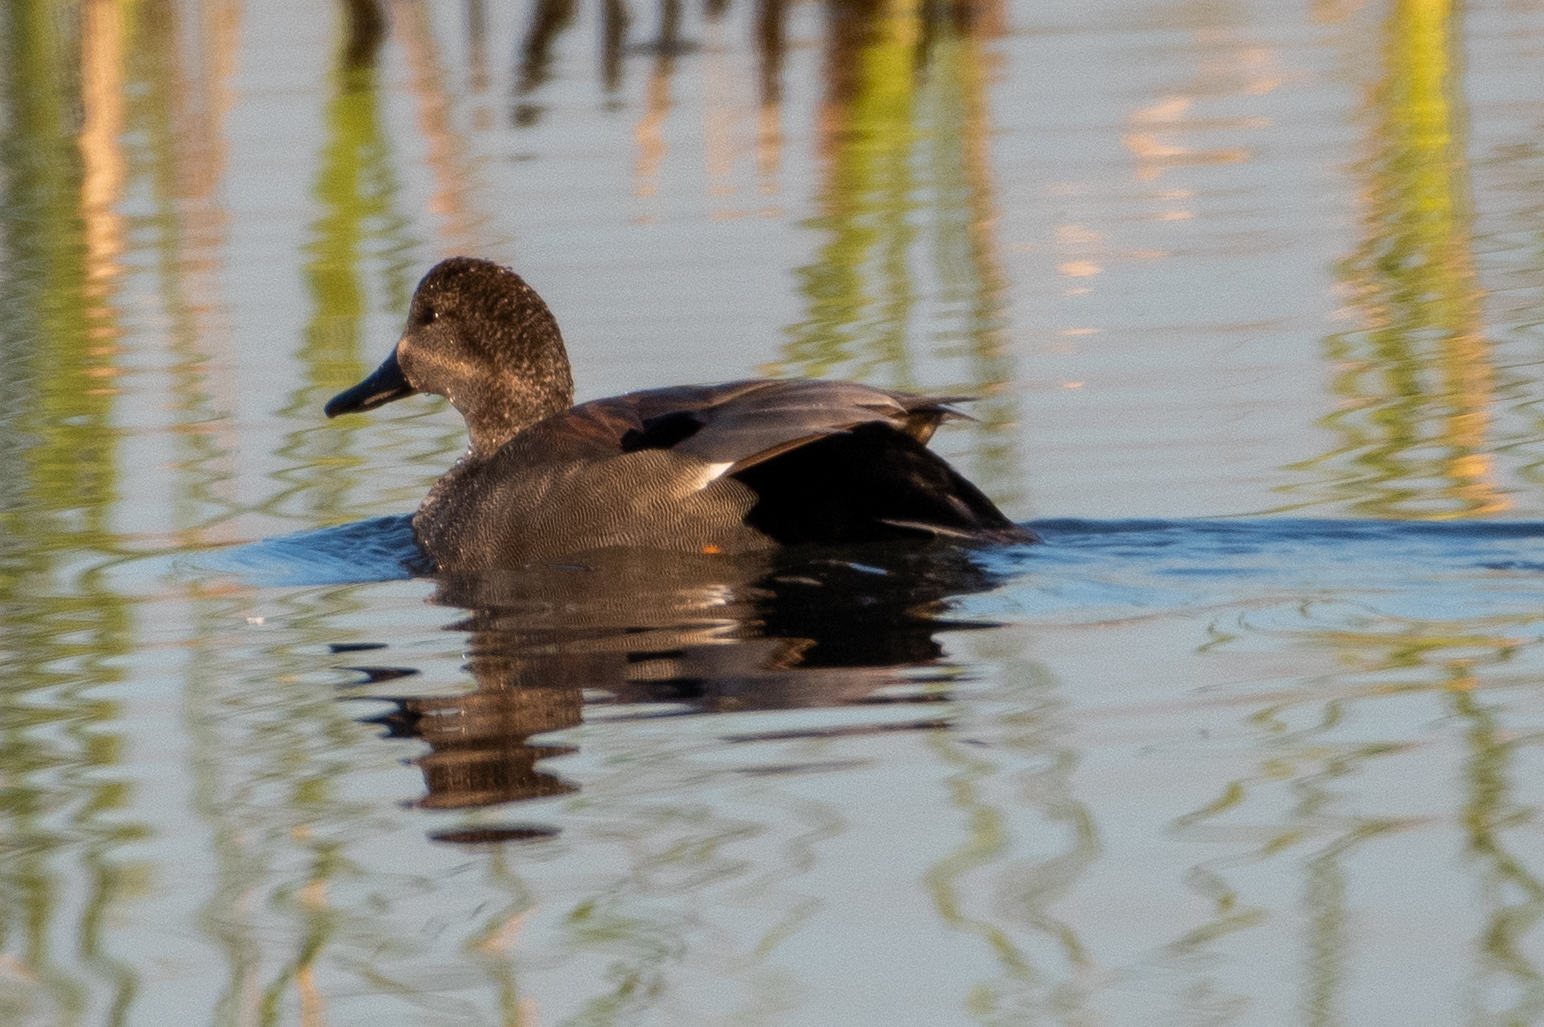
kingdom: Animalia
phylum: Chordata
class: Aves
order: Anseriformes
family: Anatidae
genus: Mareca
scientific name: Mareca strepera
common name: Gadwall
